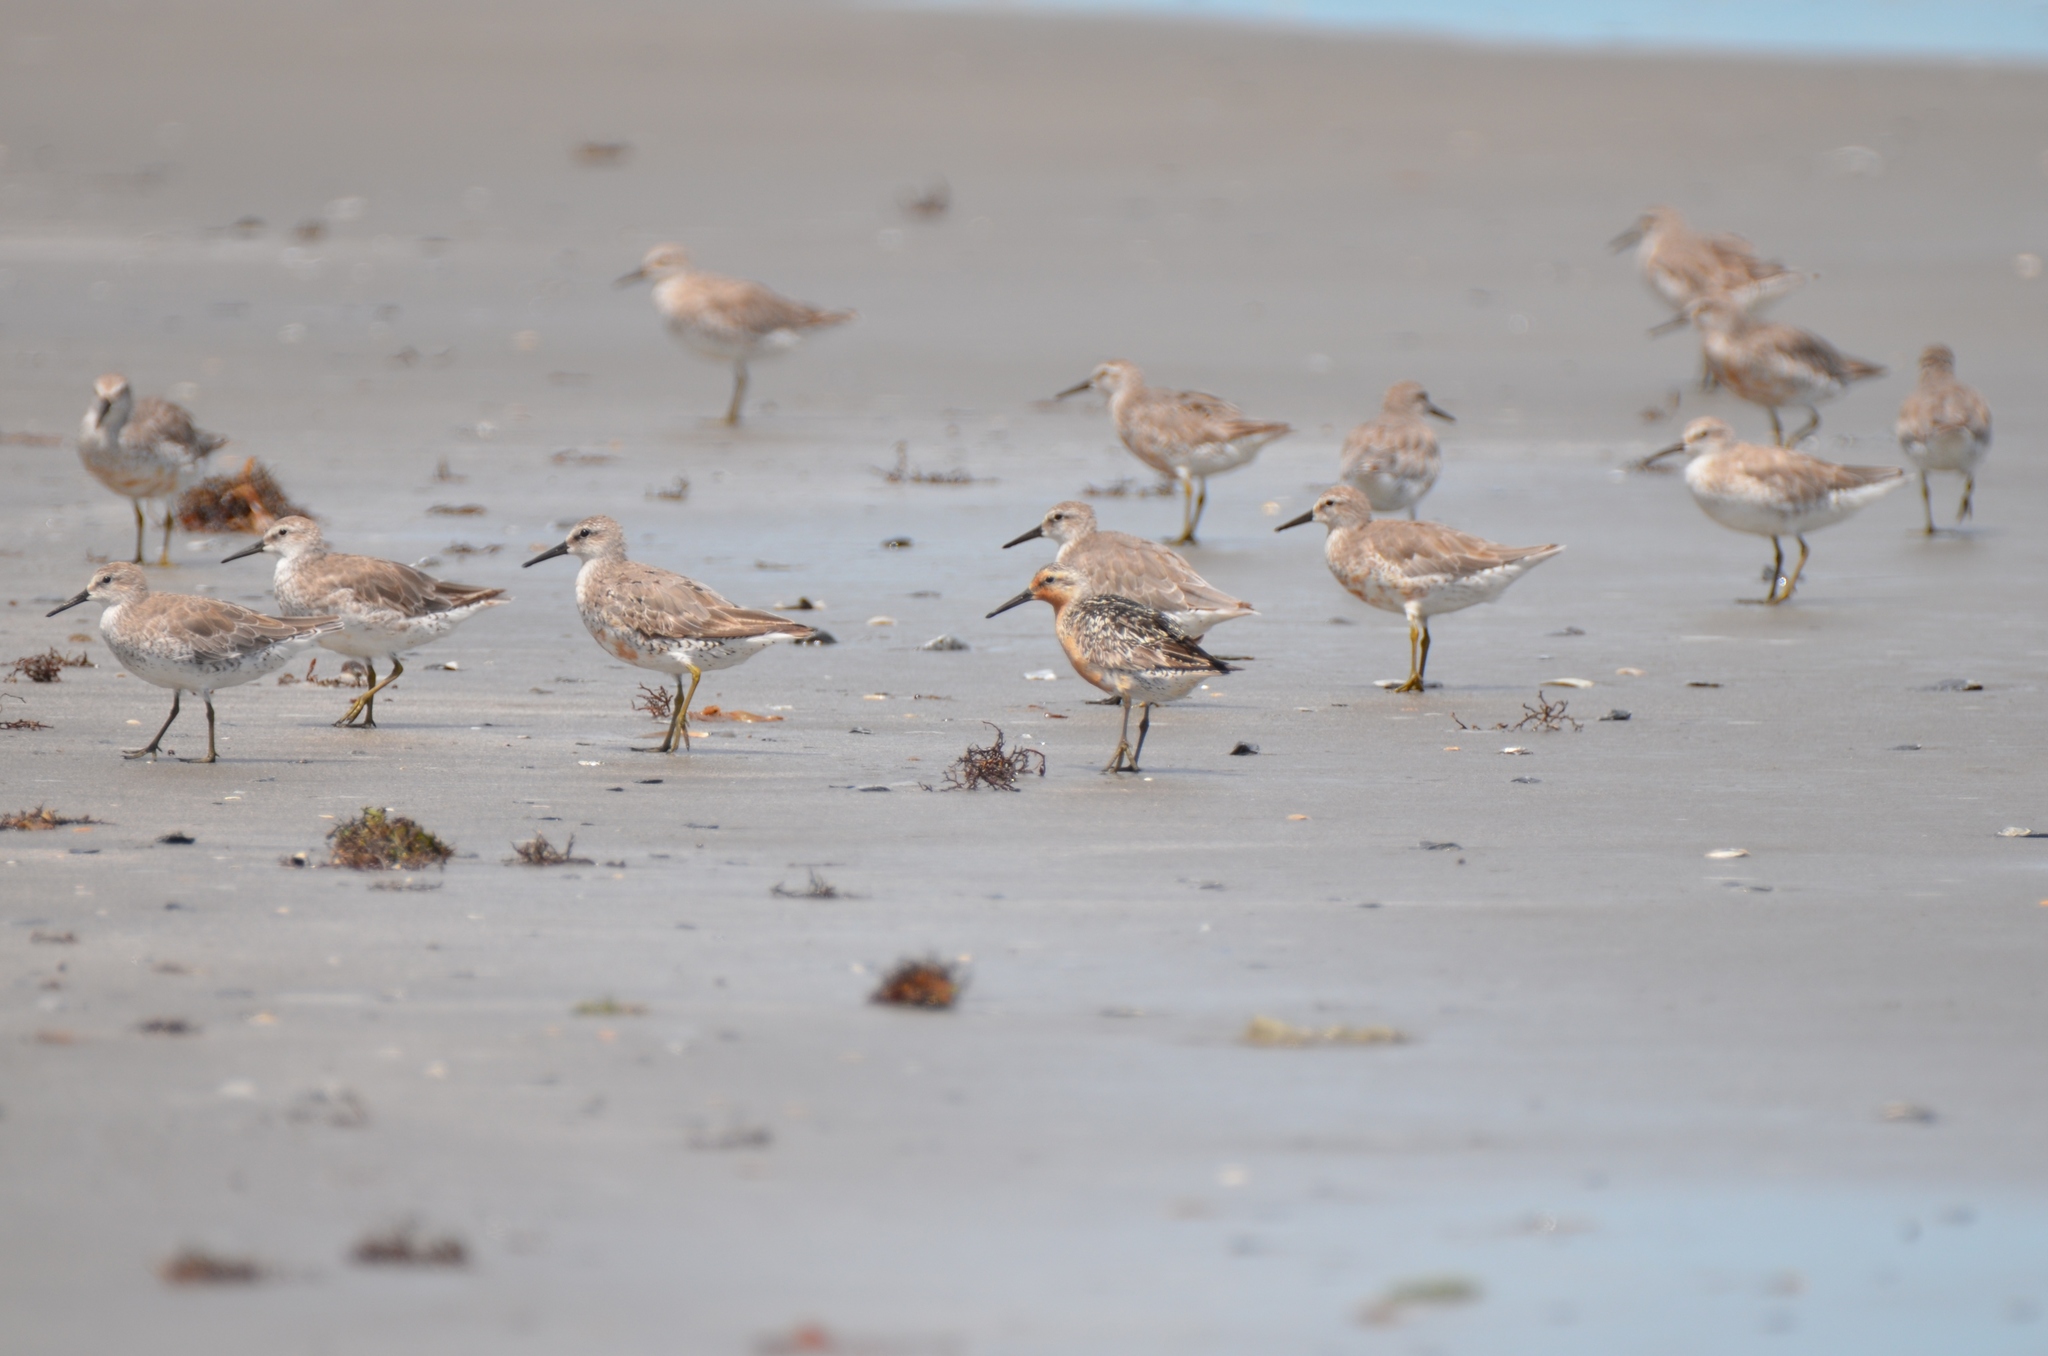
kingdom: Animalia
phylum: Chordata
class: Aves
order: Charadriiformes
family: Scolopacidae
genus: Calidris
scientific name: Calidris canutus
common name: Red knot
